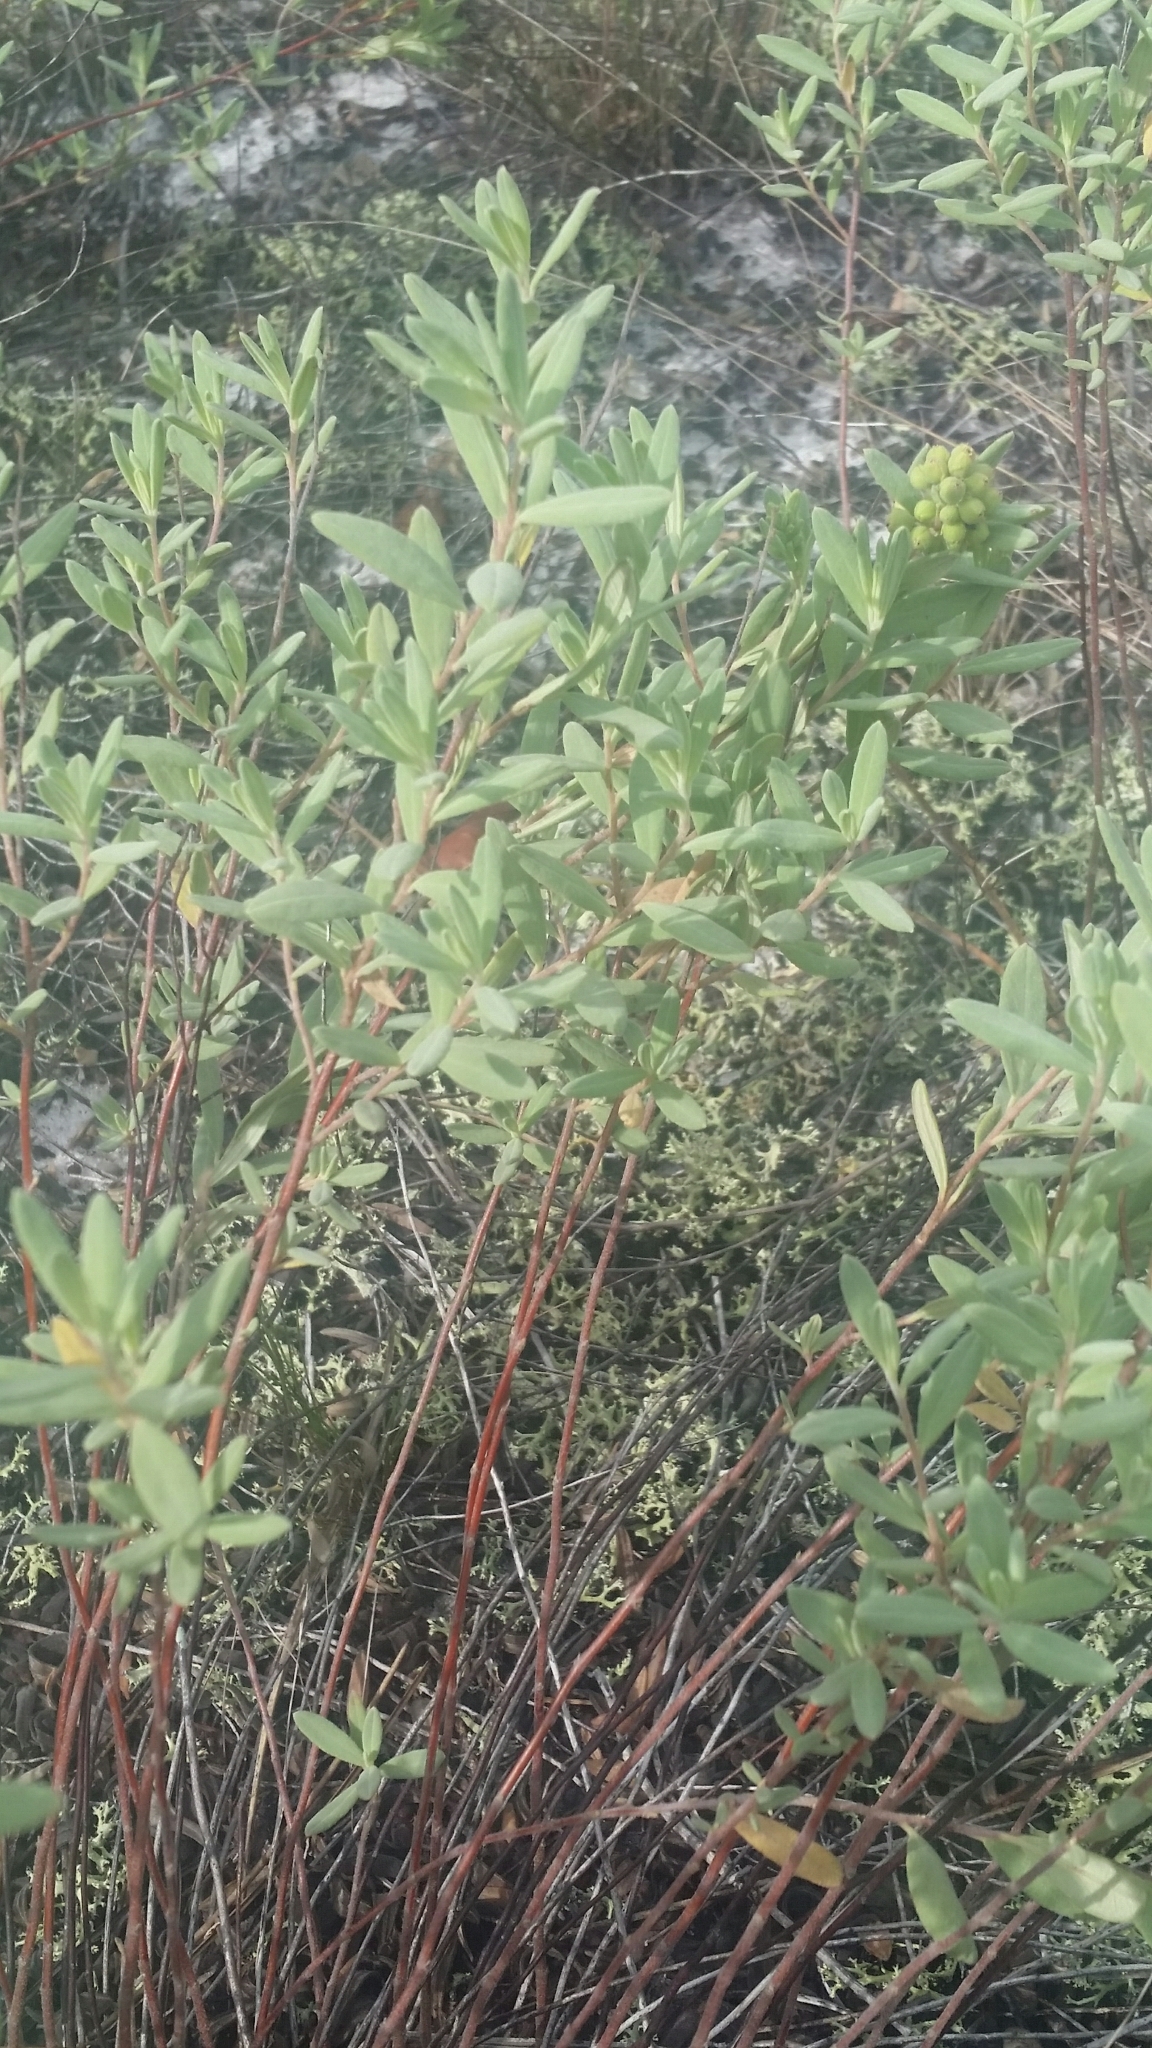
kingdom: Plantae
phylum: Tracheophyta
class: Magnoliopsida
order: Malvales
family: Cistaceae
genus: Crocanthemum
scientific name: Crocanthemum nashii
